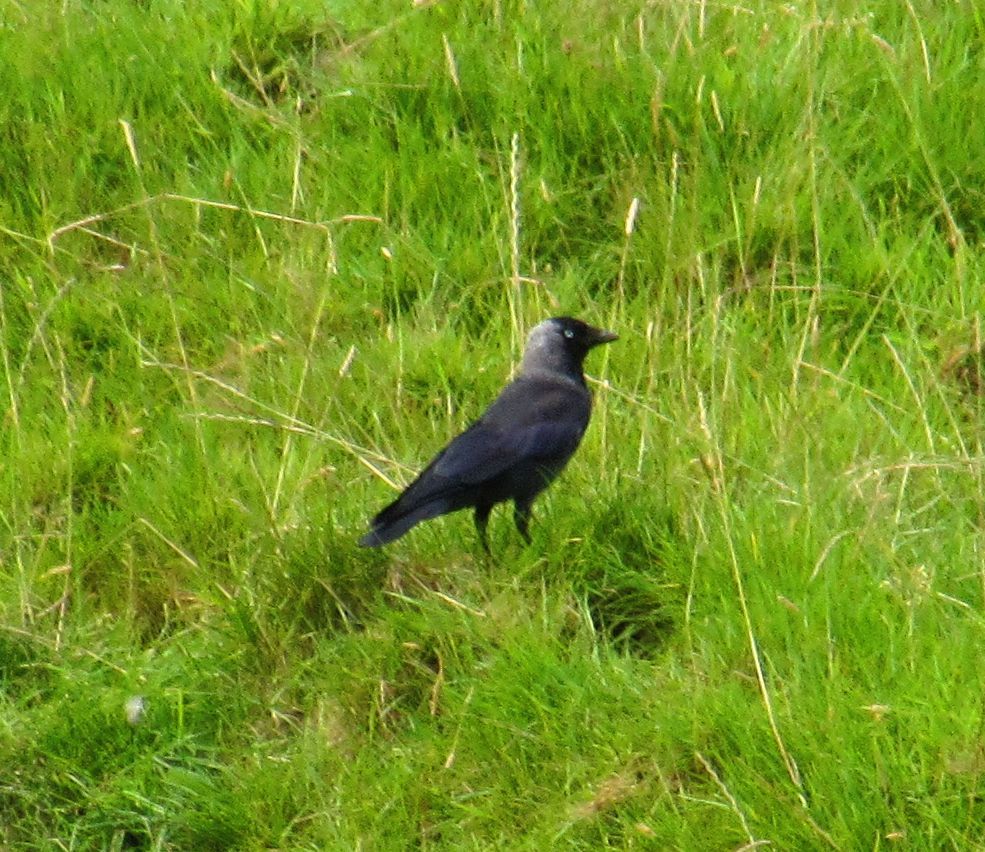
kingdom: Animalia
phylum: Chordata
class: Aves
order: Passeriformes
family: Corvidae
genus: Coloeus
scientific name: Coloeus monedula
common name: Western jackdaw
